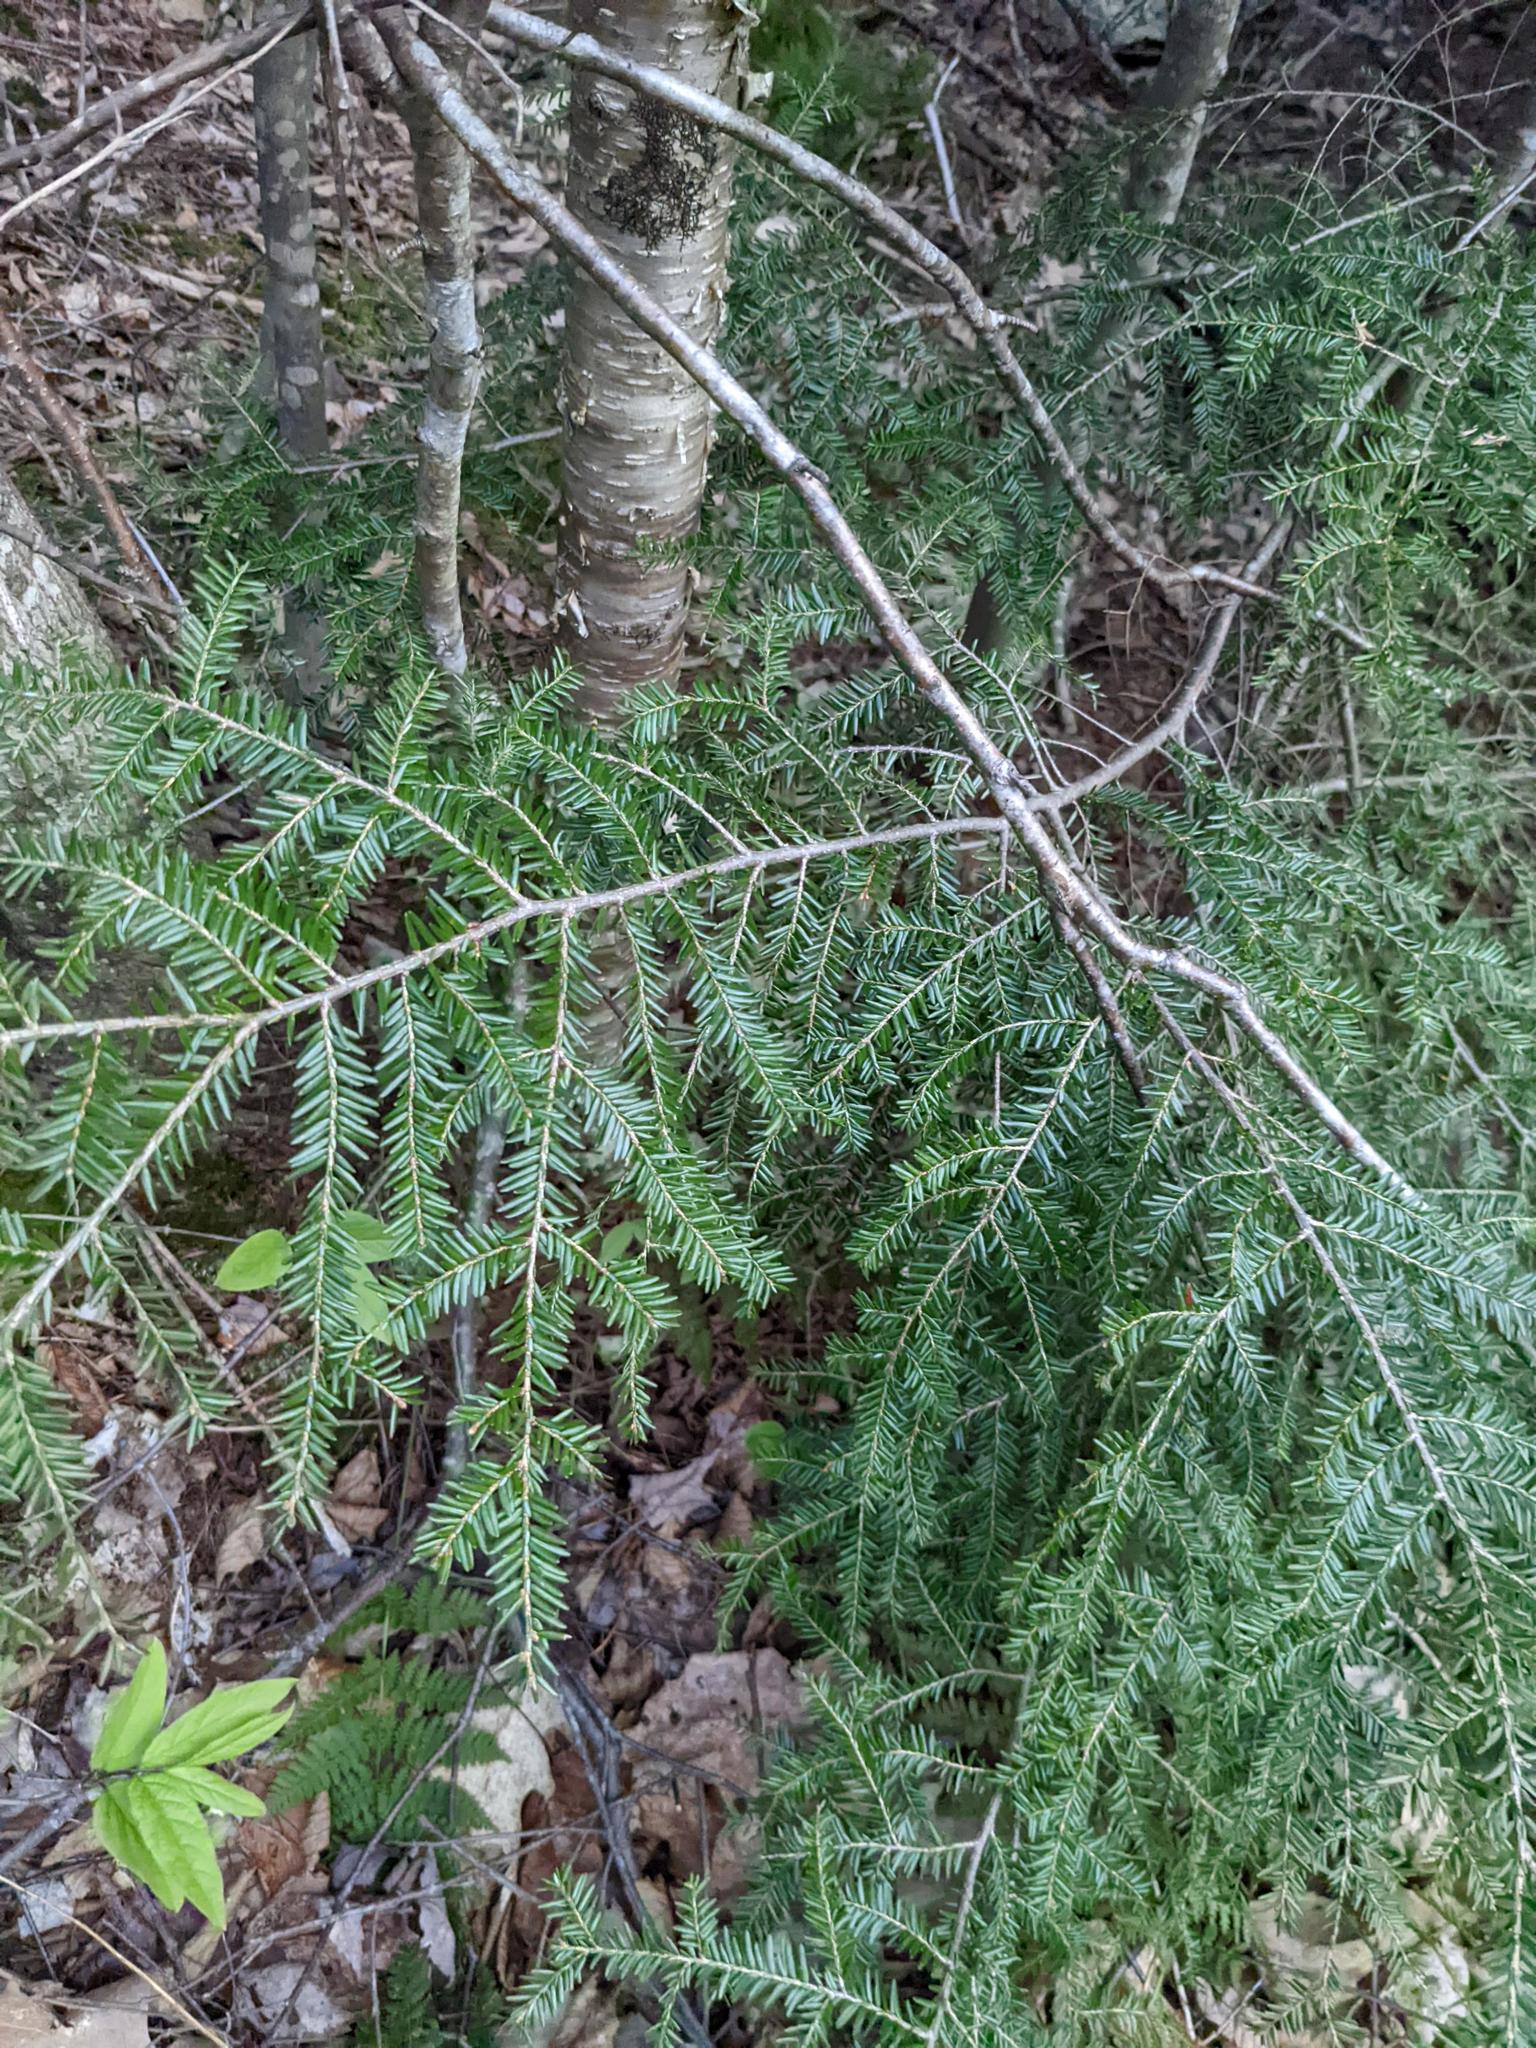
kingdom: Plantae
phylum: Tracheophyta
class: Pinopsida
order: Pinales
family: Pinaceae
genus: Tsuga
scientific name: Tsuga canadensis
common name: Eastern hemlock
